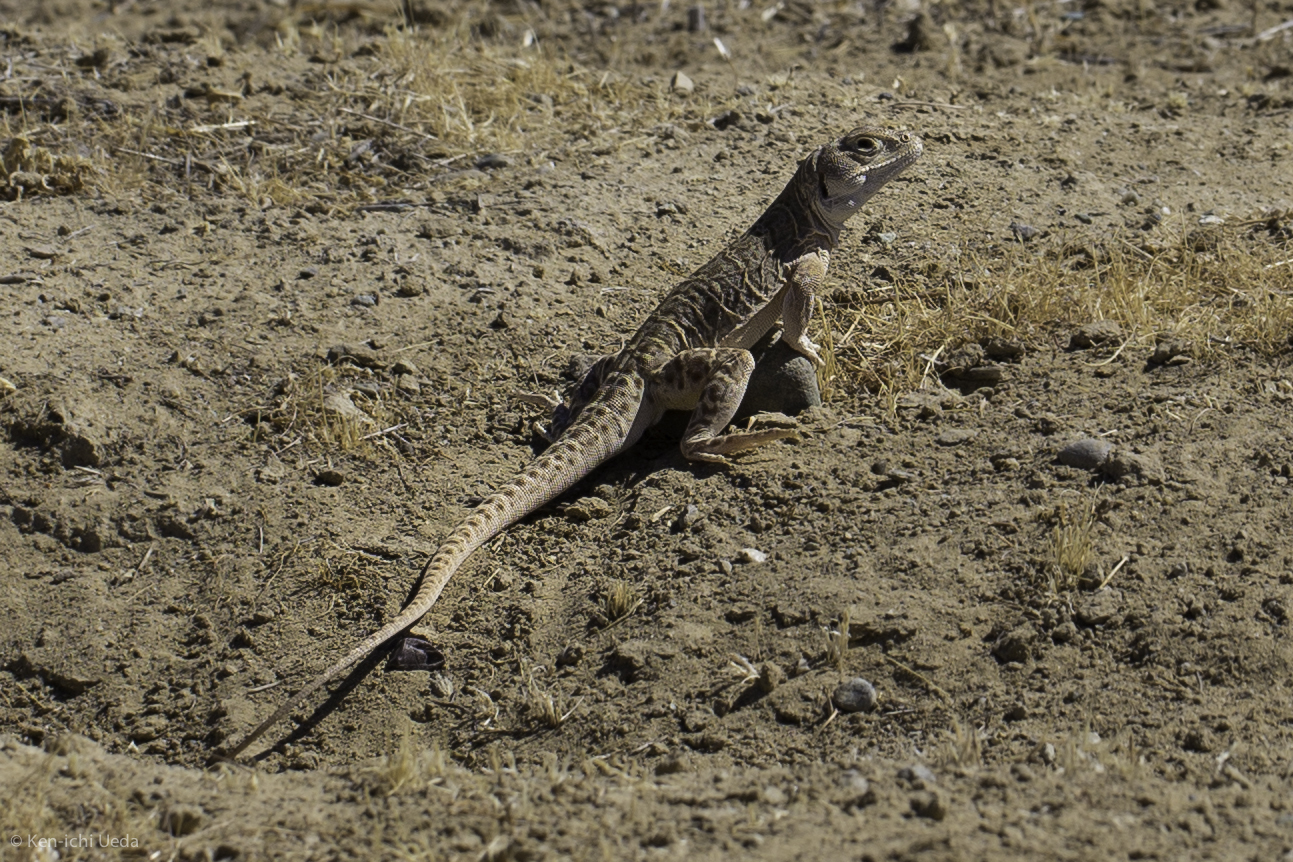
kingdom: Animalia
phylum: Chordata
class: Squamata
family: Crotaphytidae
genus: Gambelia
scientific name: Gambelia sila
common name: San joaquin leopard lizard
